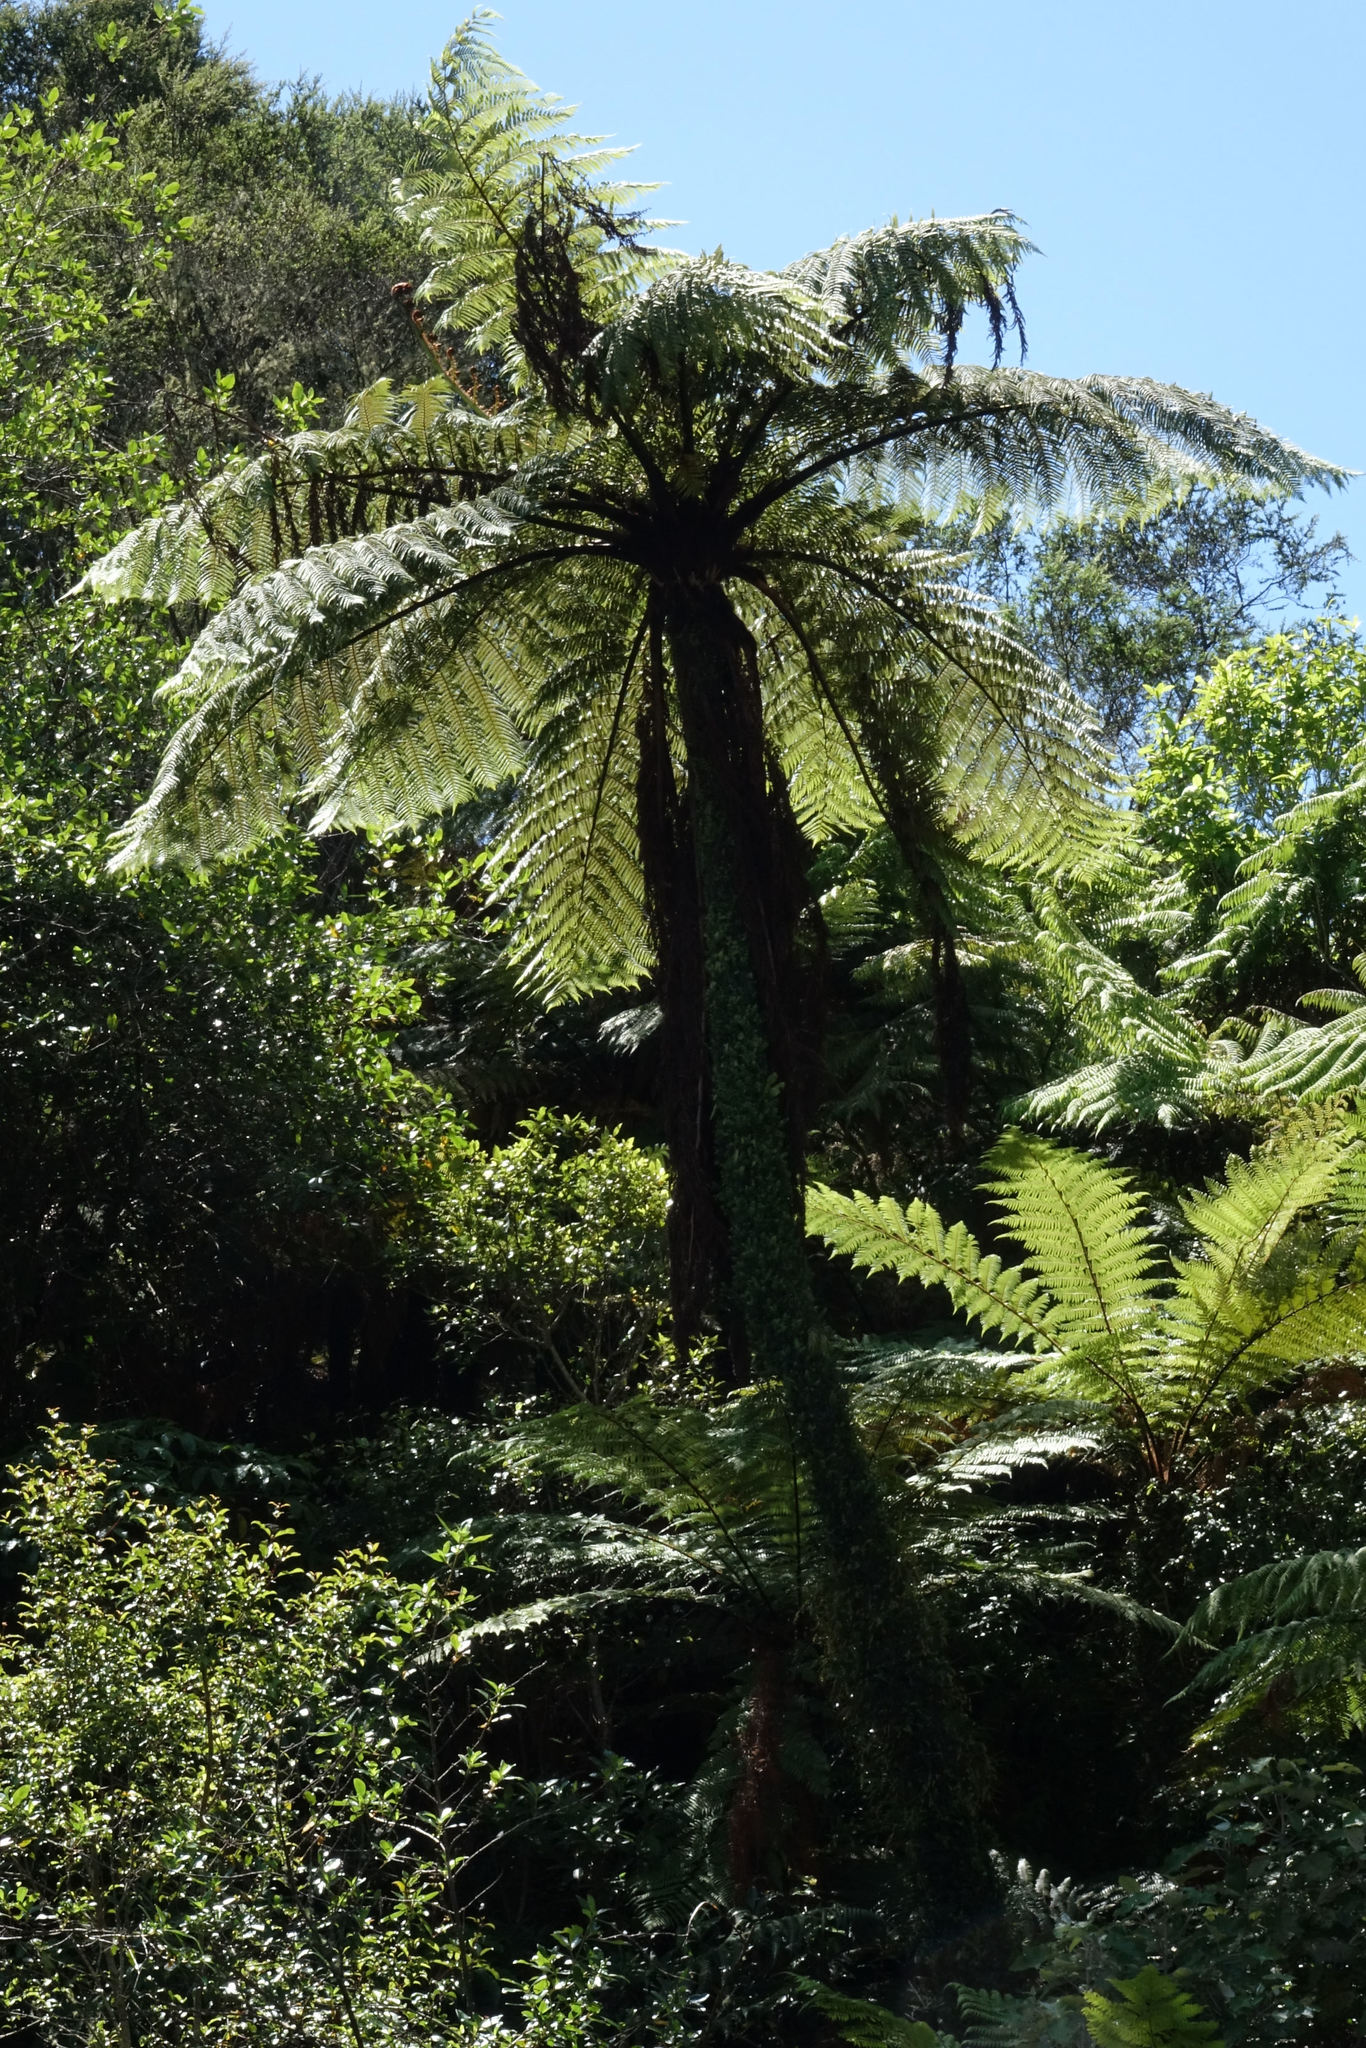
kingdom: Plantae
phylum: Tracheophyta
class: Polypodiopsida
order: Cyatheales
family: Cyatheaceae
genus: Sphaeropteris
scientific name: Sphaeropteris medullaris
